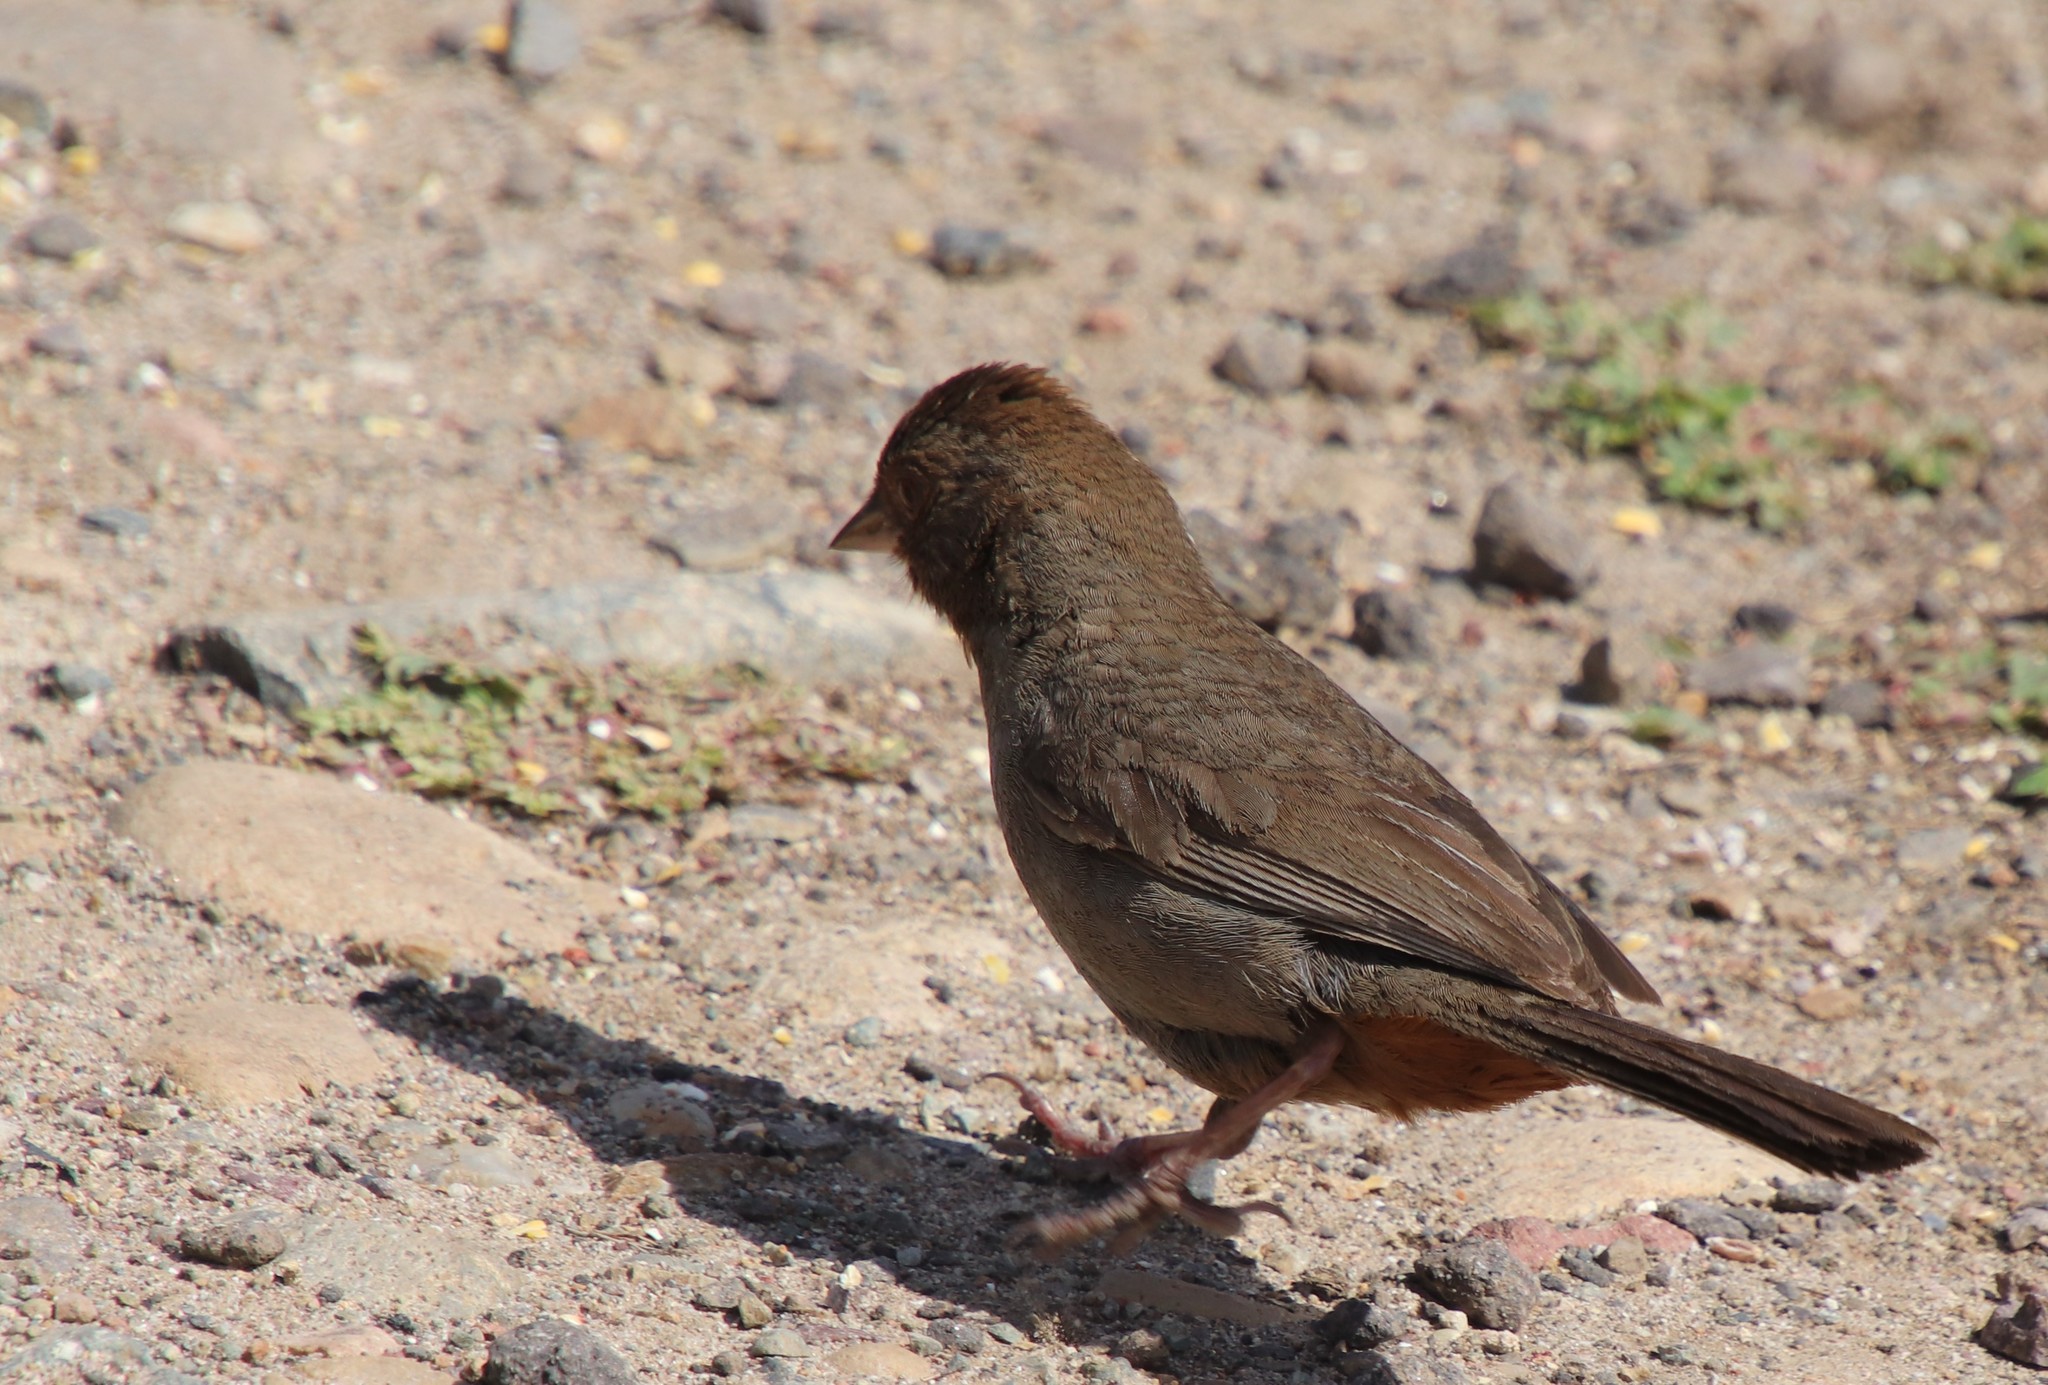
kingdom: Animalia
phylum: Chordata
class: Aves
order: Passeriformes
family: Passerellidae
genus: Melozone
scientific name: Melozone crissalis
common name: California towhee
